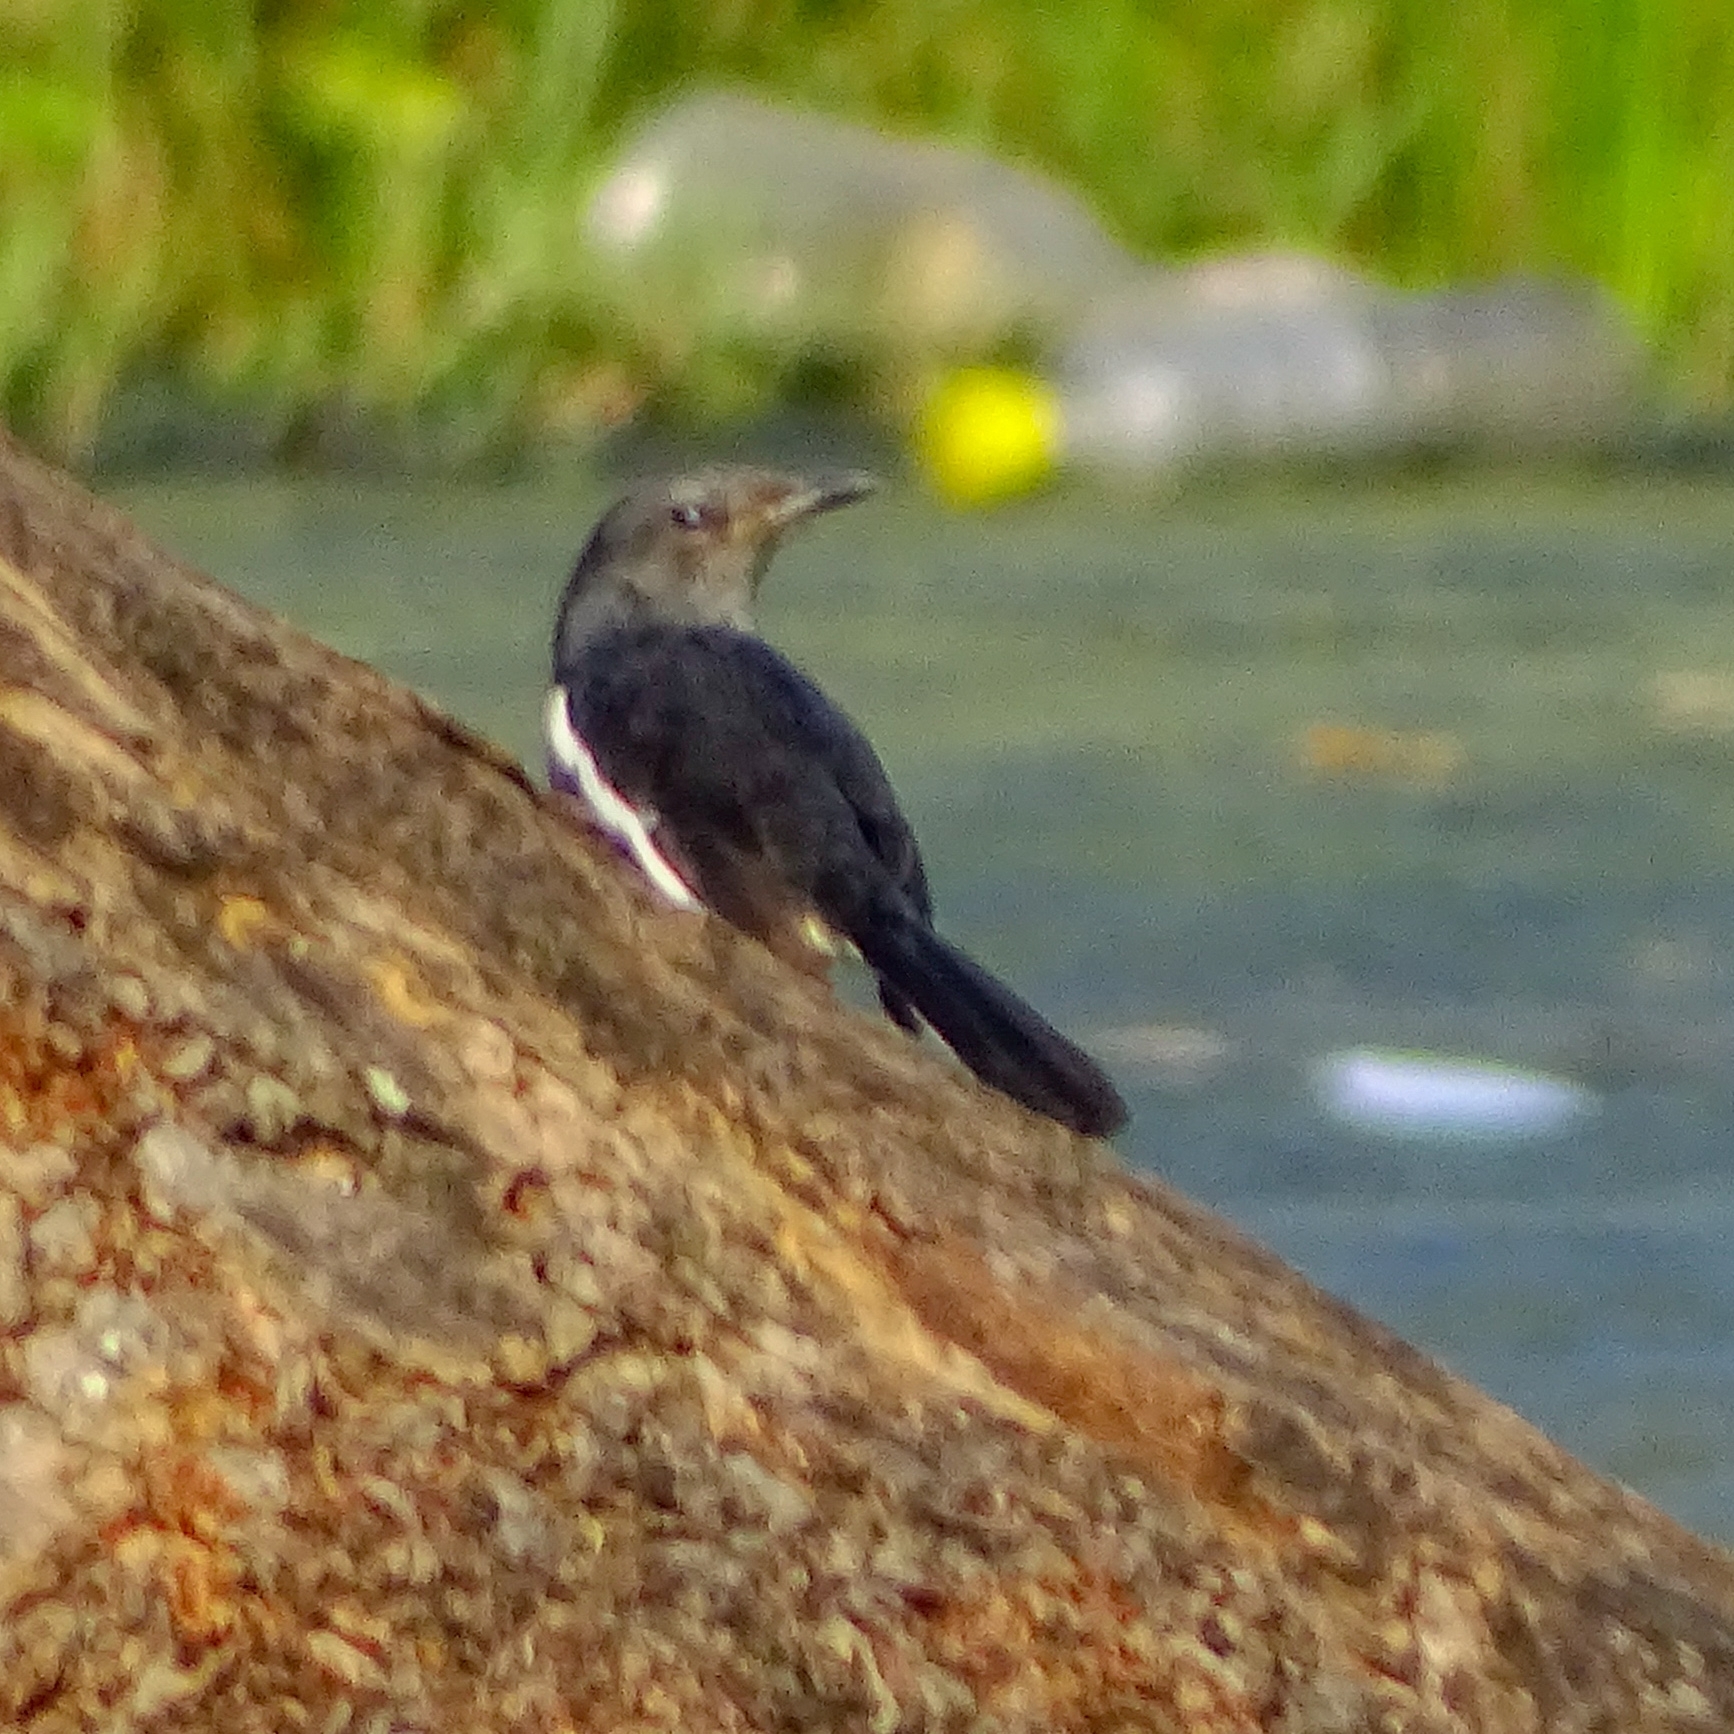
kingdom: Animalia
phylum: Chordata
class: Aves
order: Passeriformes
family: Muscicapidae
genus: Copsychus
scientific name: Copsychus saularis
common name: Oriental magpie-robin
